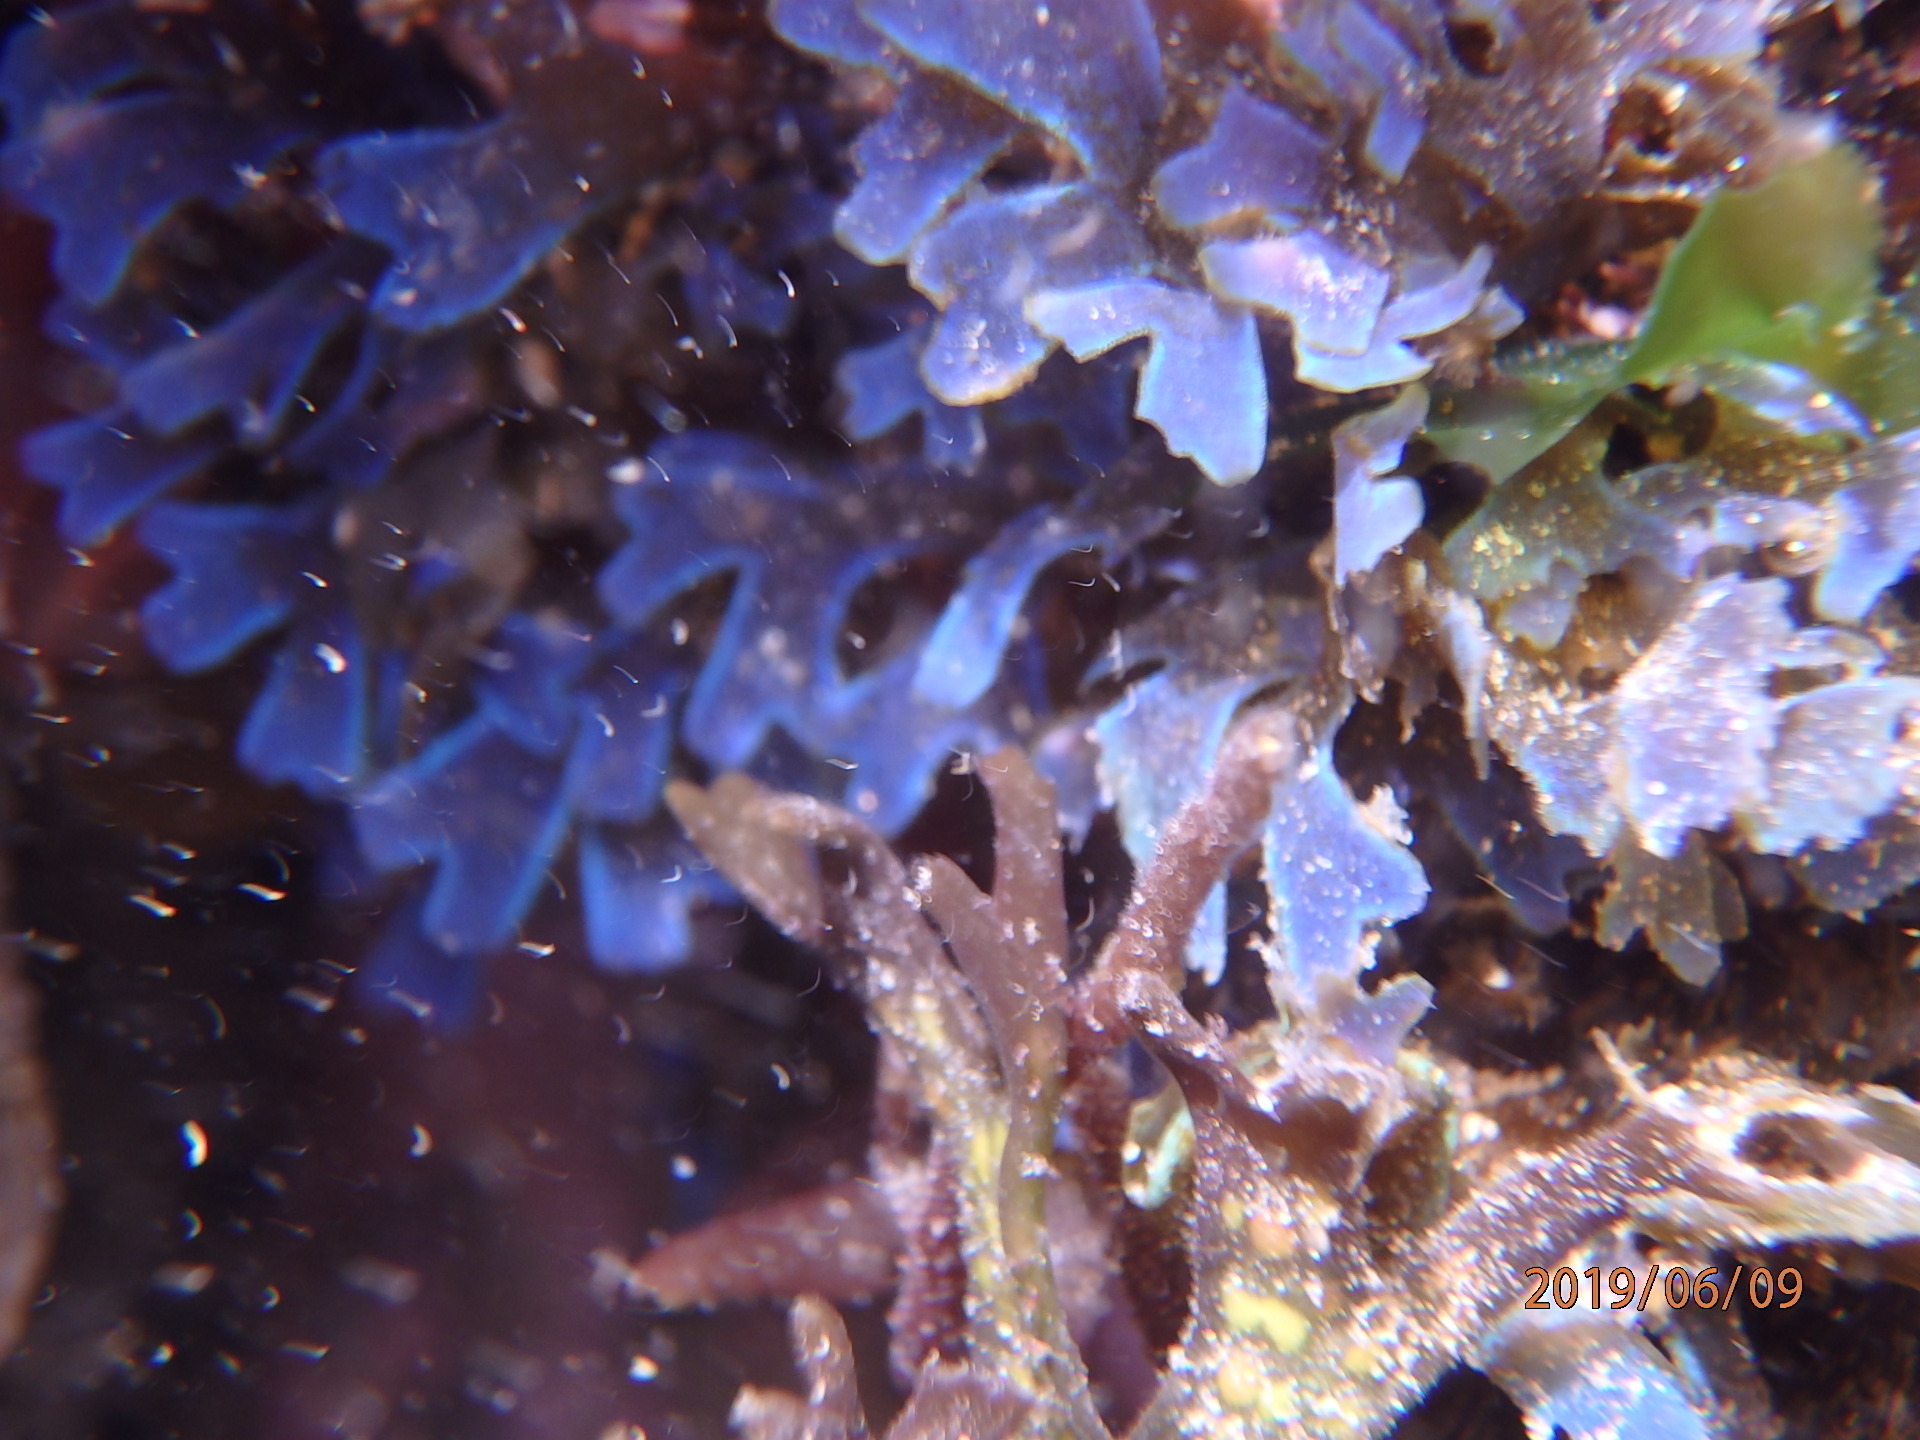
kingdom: Chromista
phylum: Ochrophyta
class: Phaeophyceae
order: Dictyotales
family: Dictyotaceae
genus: Dictyota
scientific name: Dictyota flabellata
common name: Brown algae
